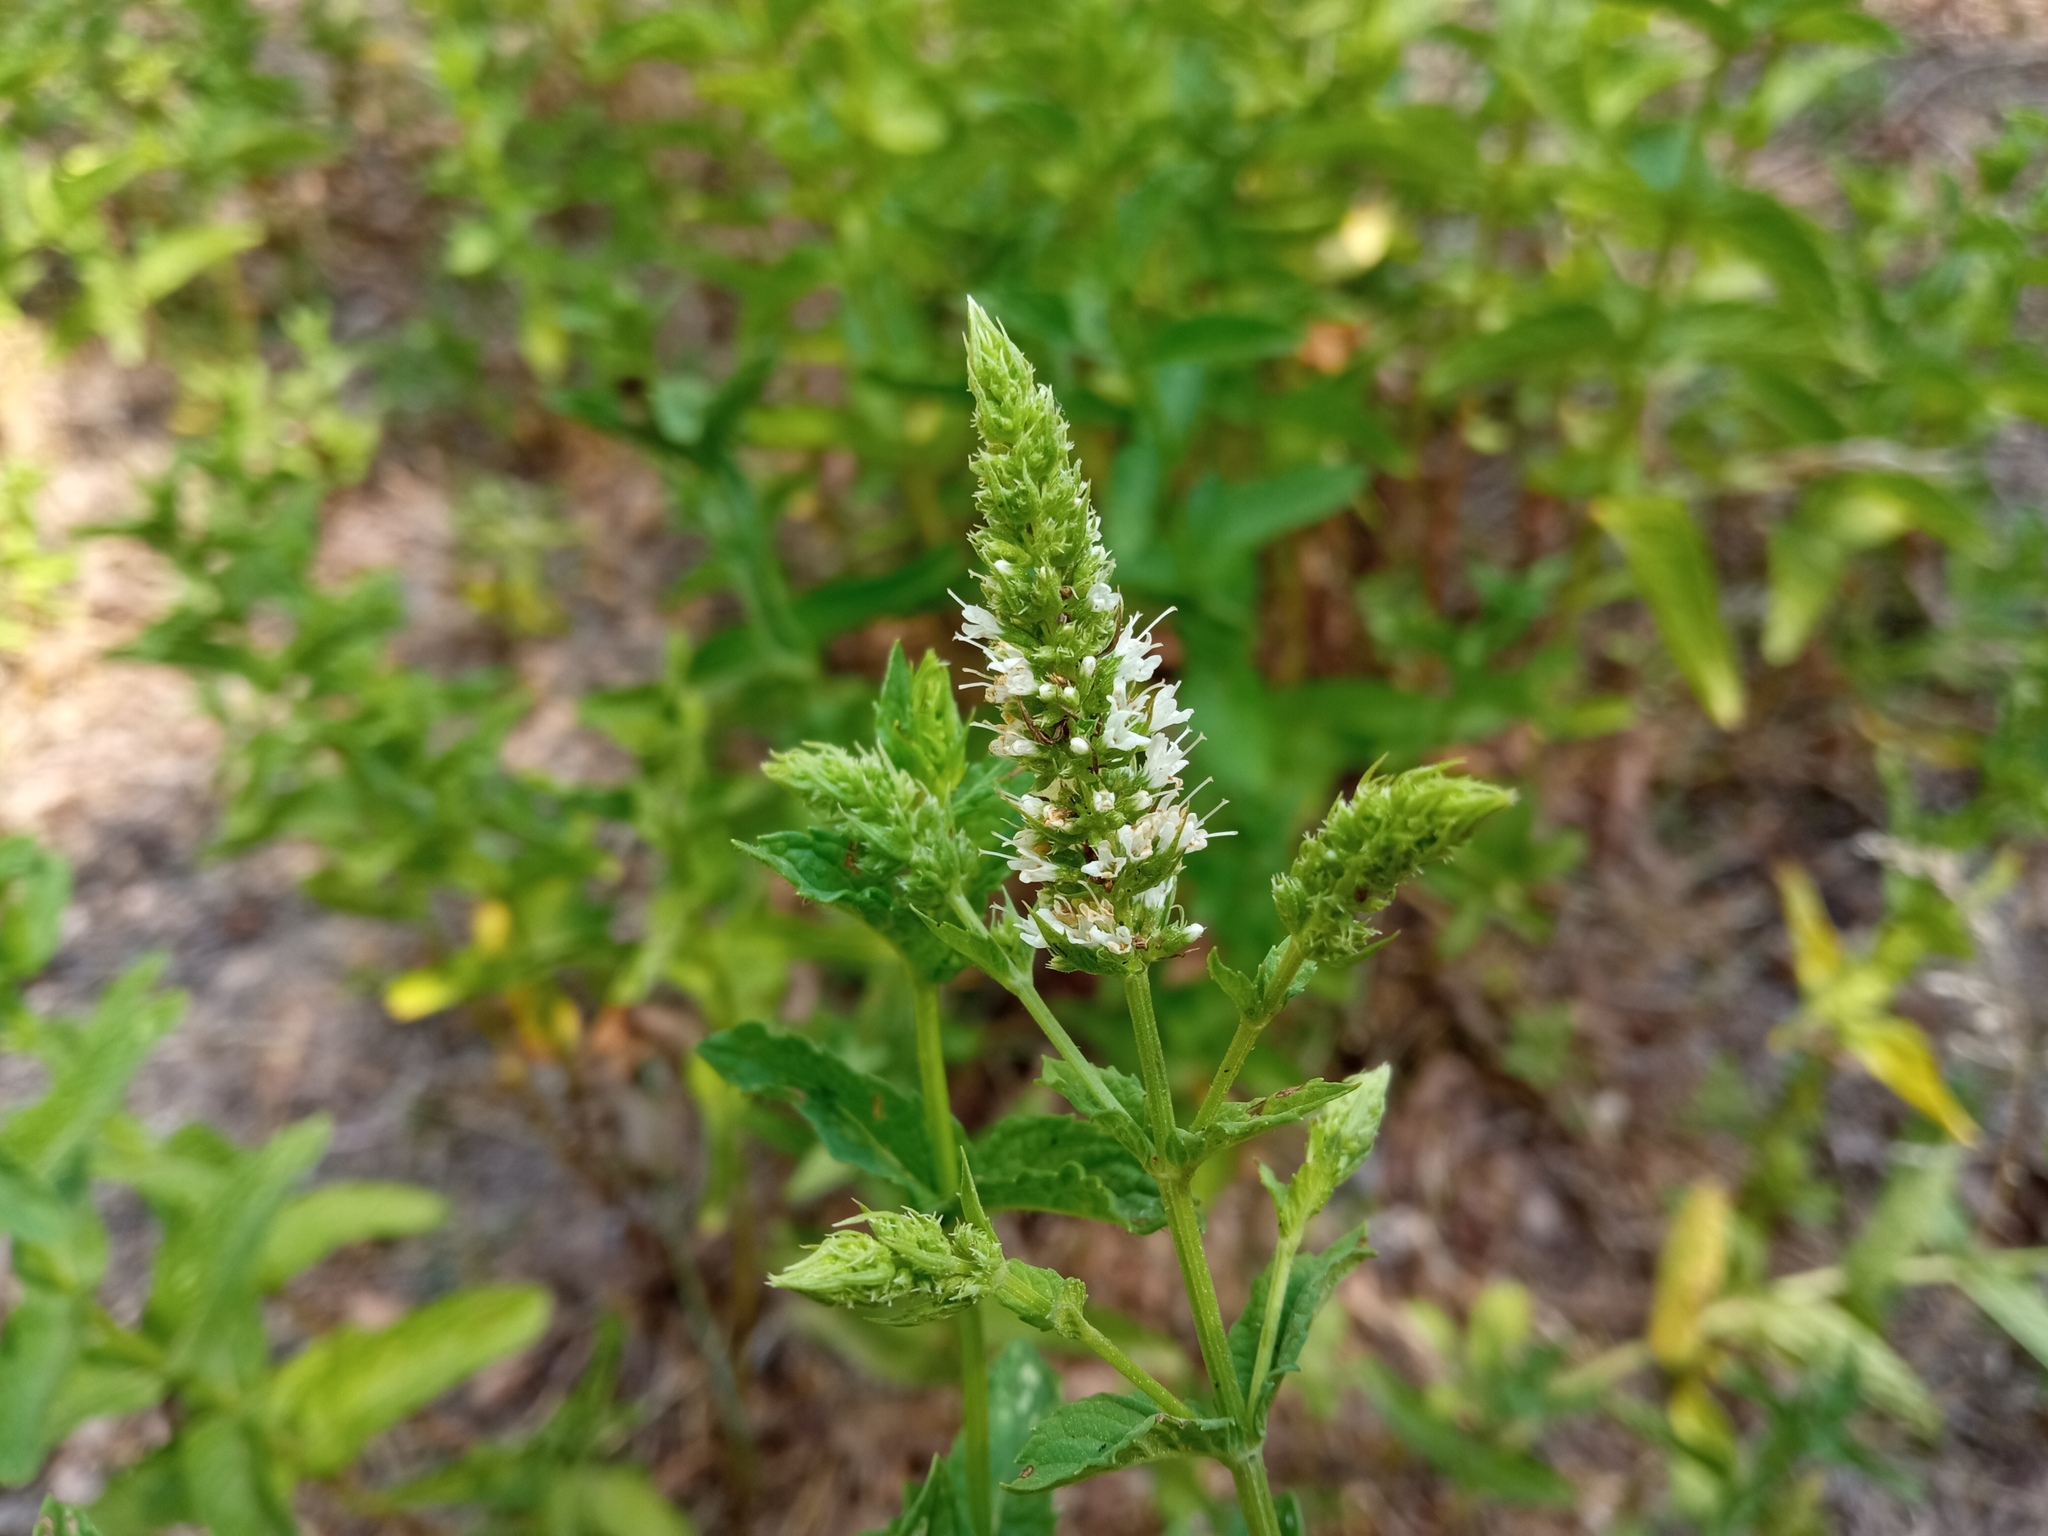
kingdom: Plantae
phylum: Tracheophyta
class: Magnoliopsida
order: Lamiales
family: Lamiaceae
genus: Mentha
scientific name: Mentha spicata
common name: Spearmint
